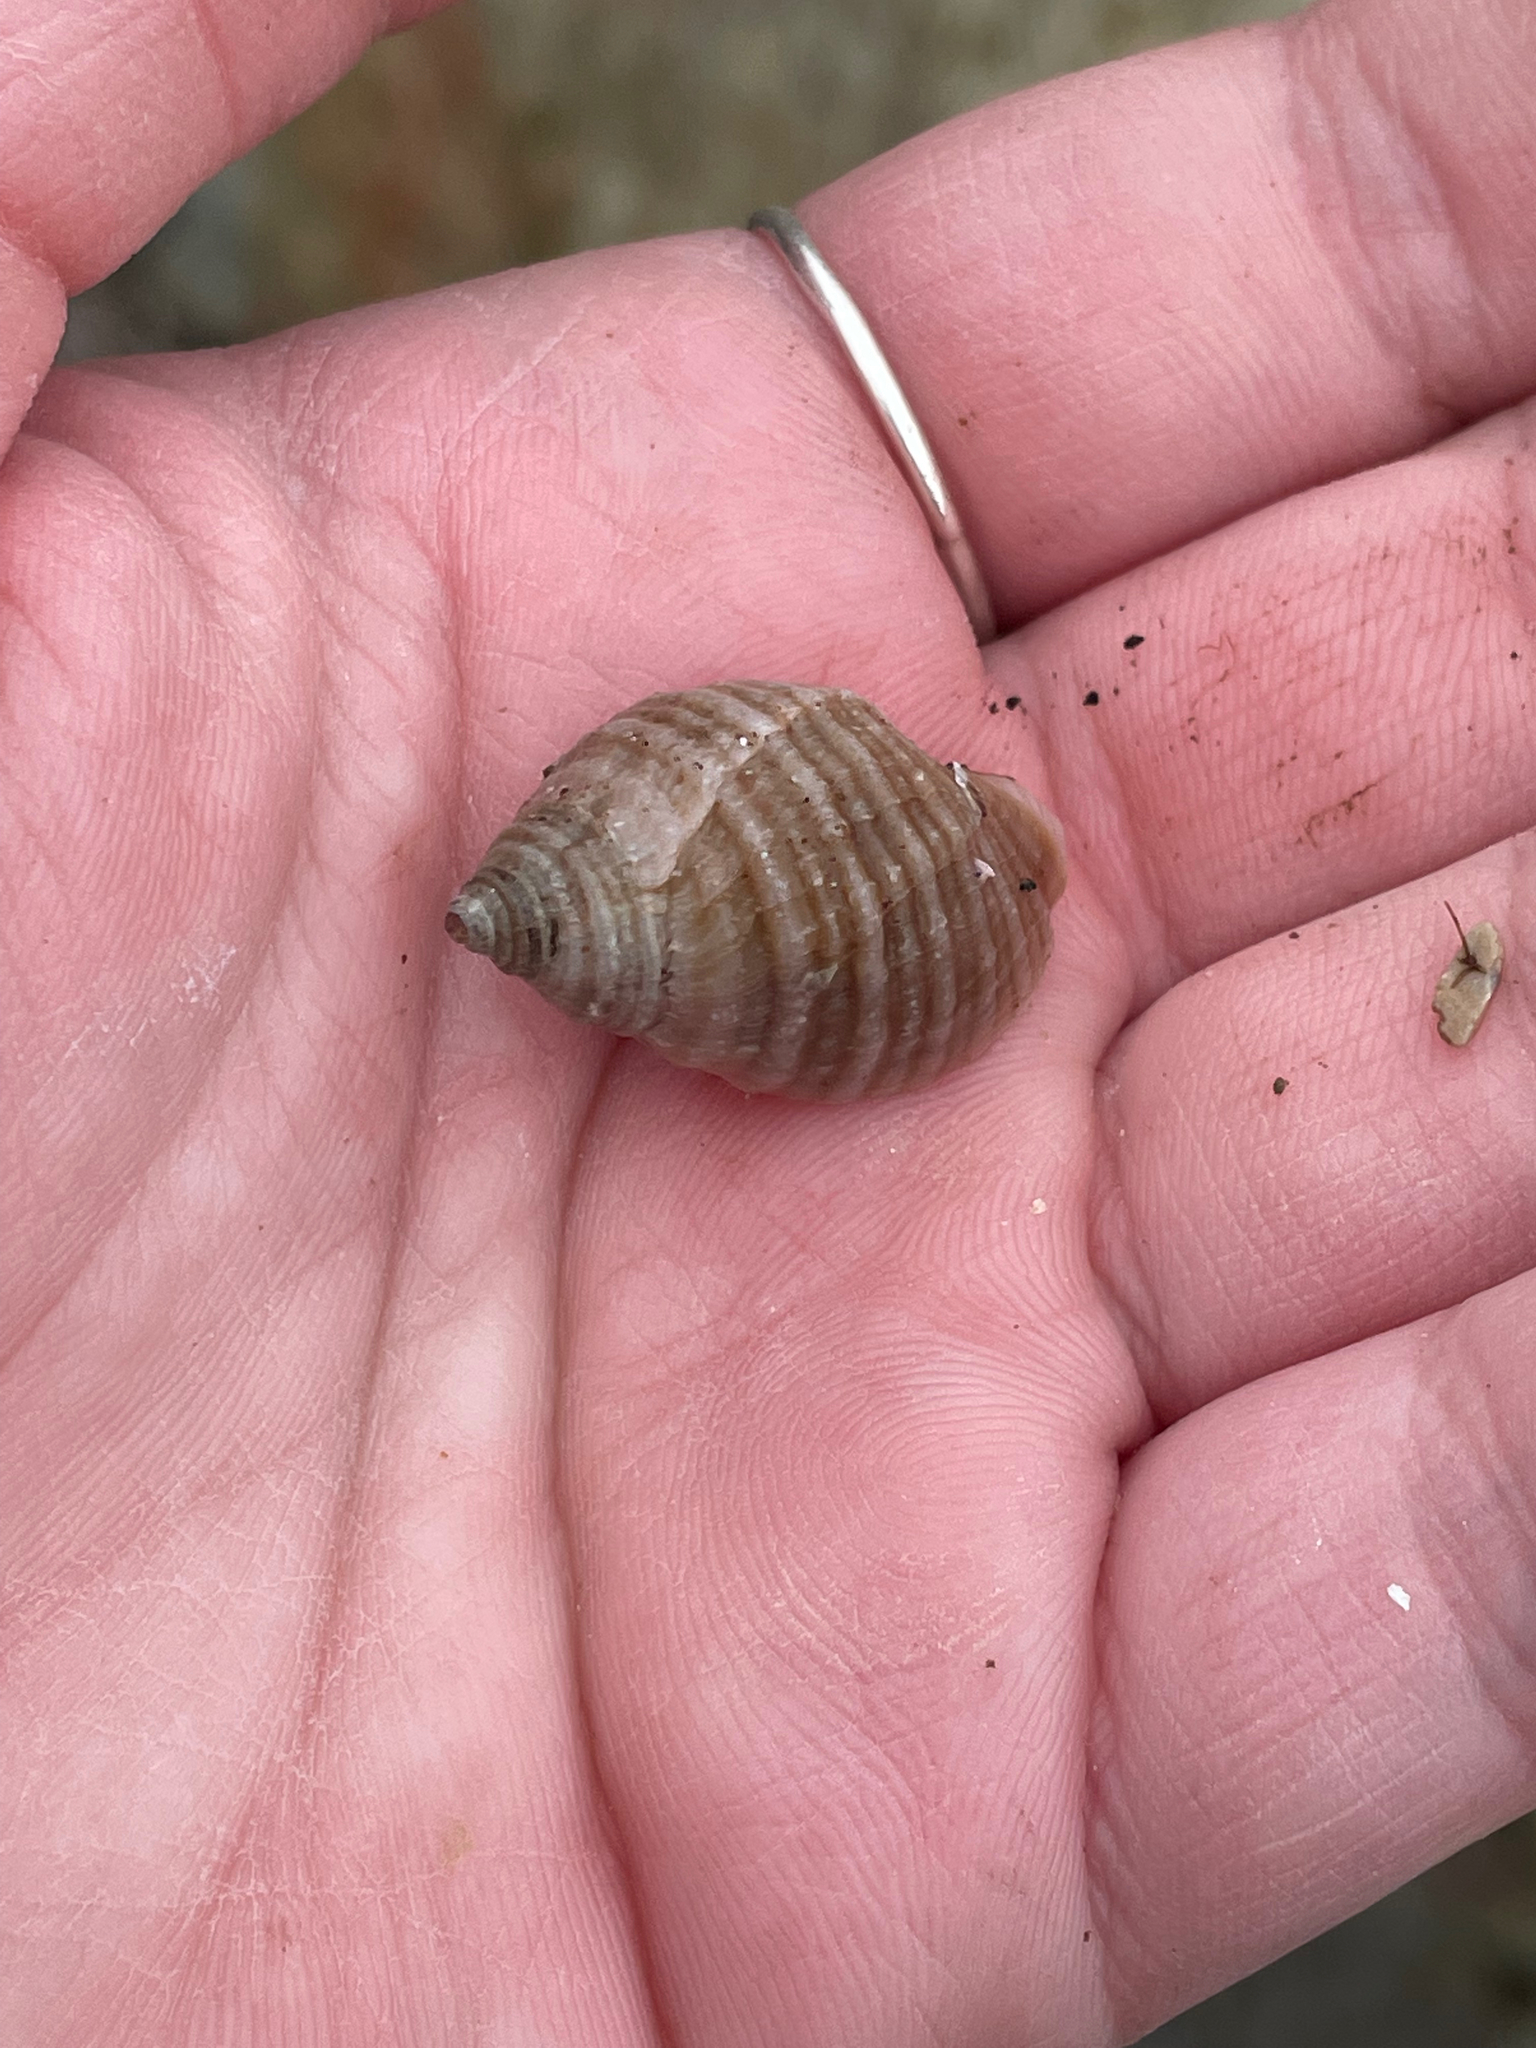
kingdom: Animalia
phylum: Mollusca
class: Gastropoda
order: Neogastropoda
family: Muricidae
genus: Nucella
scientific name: Nucella lapillus
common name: Dog whelk
